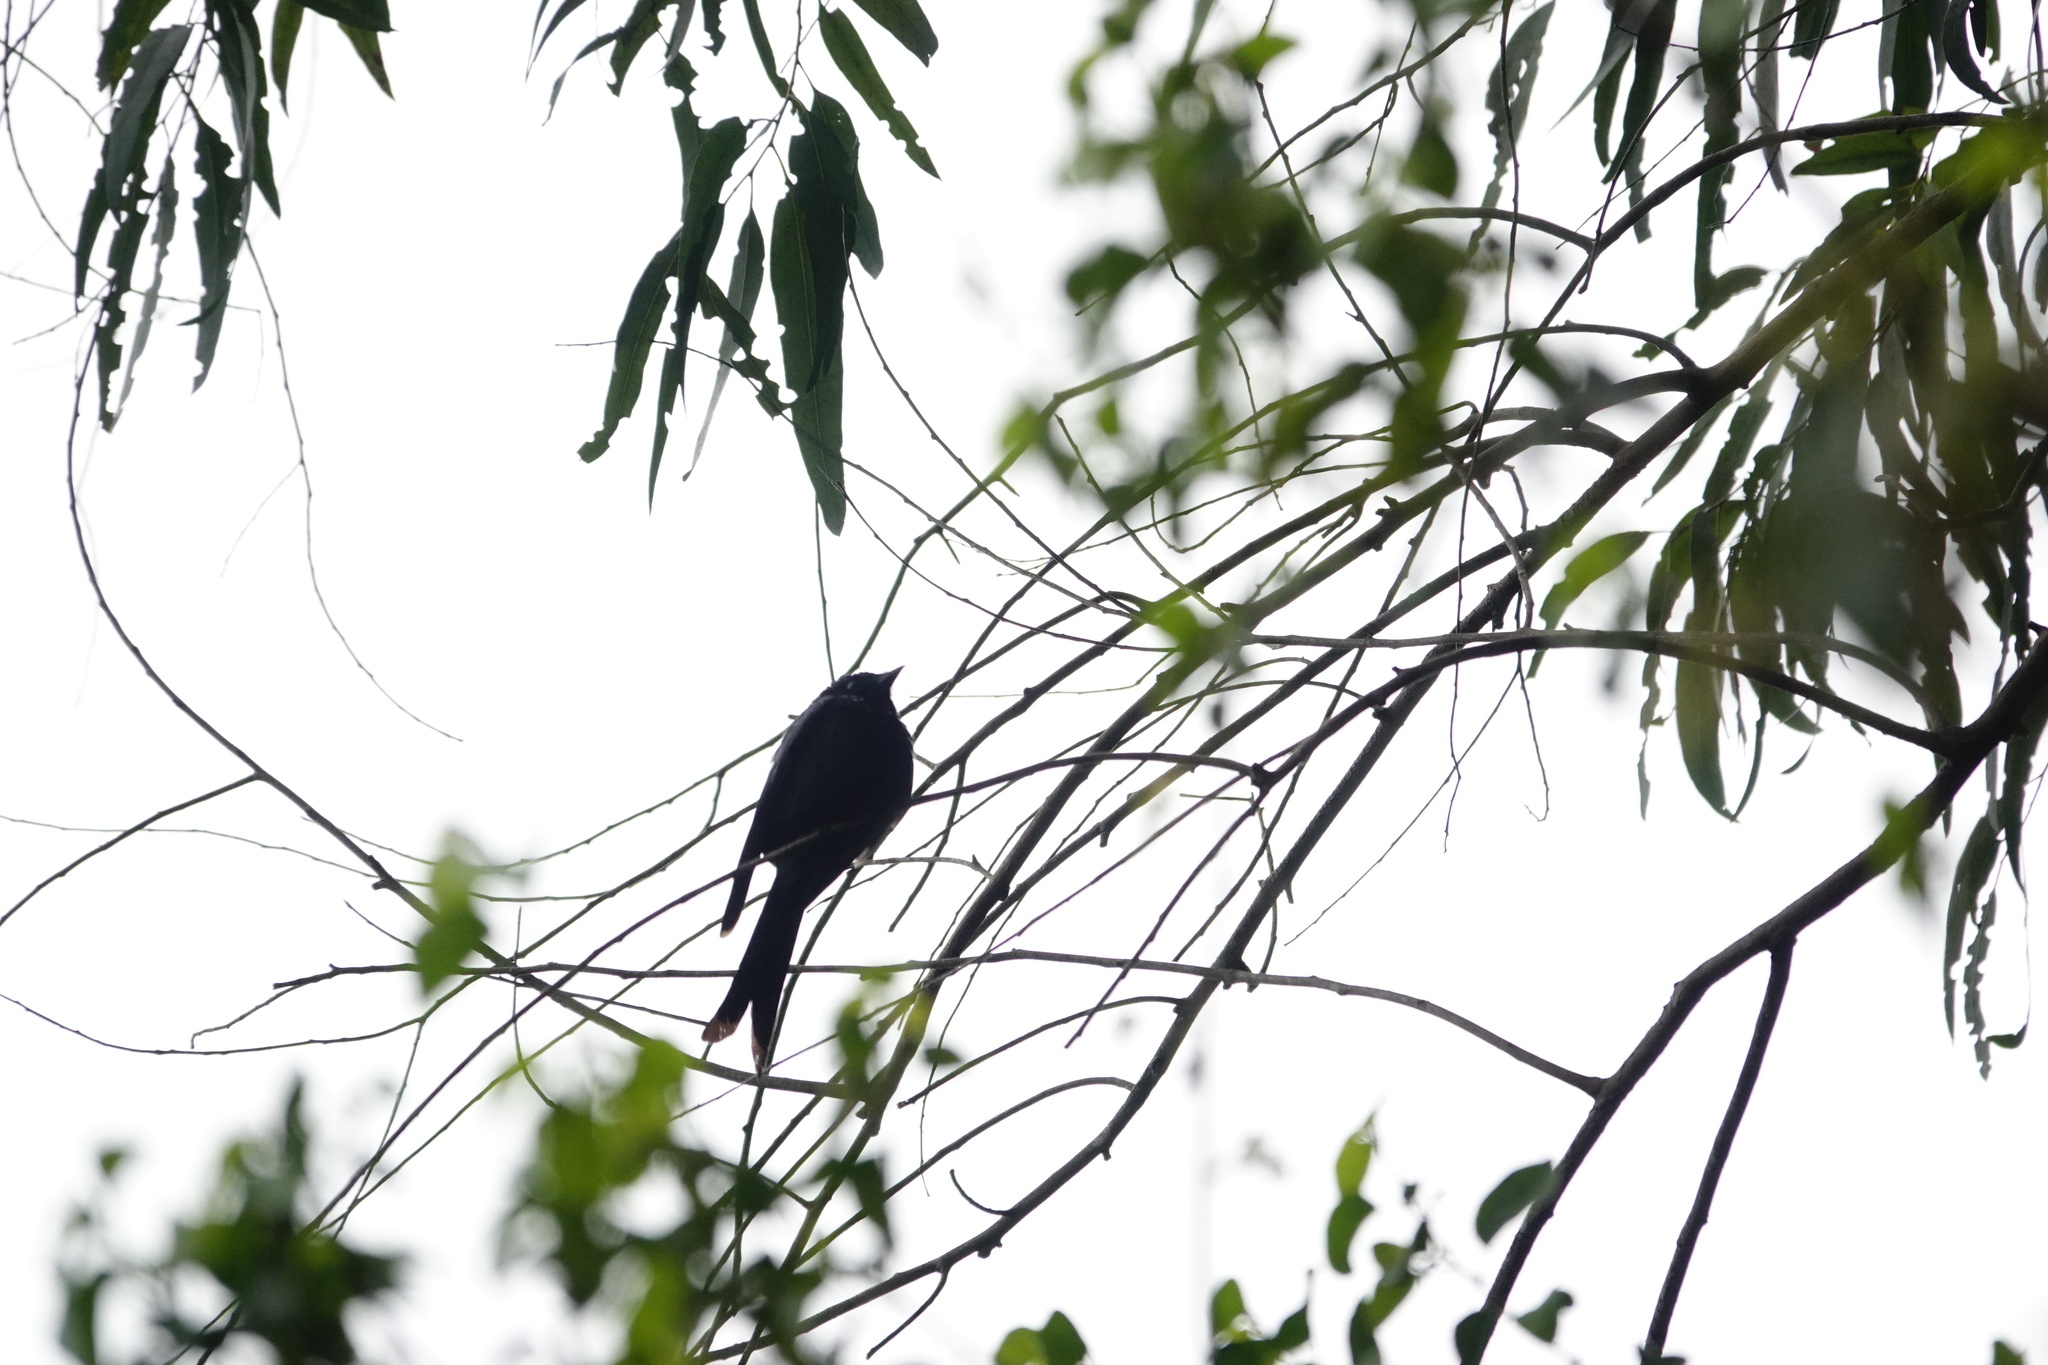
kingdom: Animalia
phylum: Chordata
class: Aves
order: Passeriformes
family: Dicruridae
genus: Dicrurus
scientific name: Dicrurus aeneus
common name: Bronzed drongo
